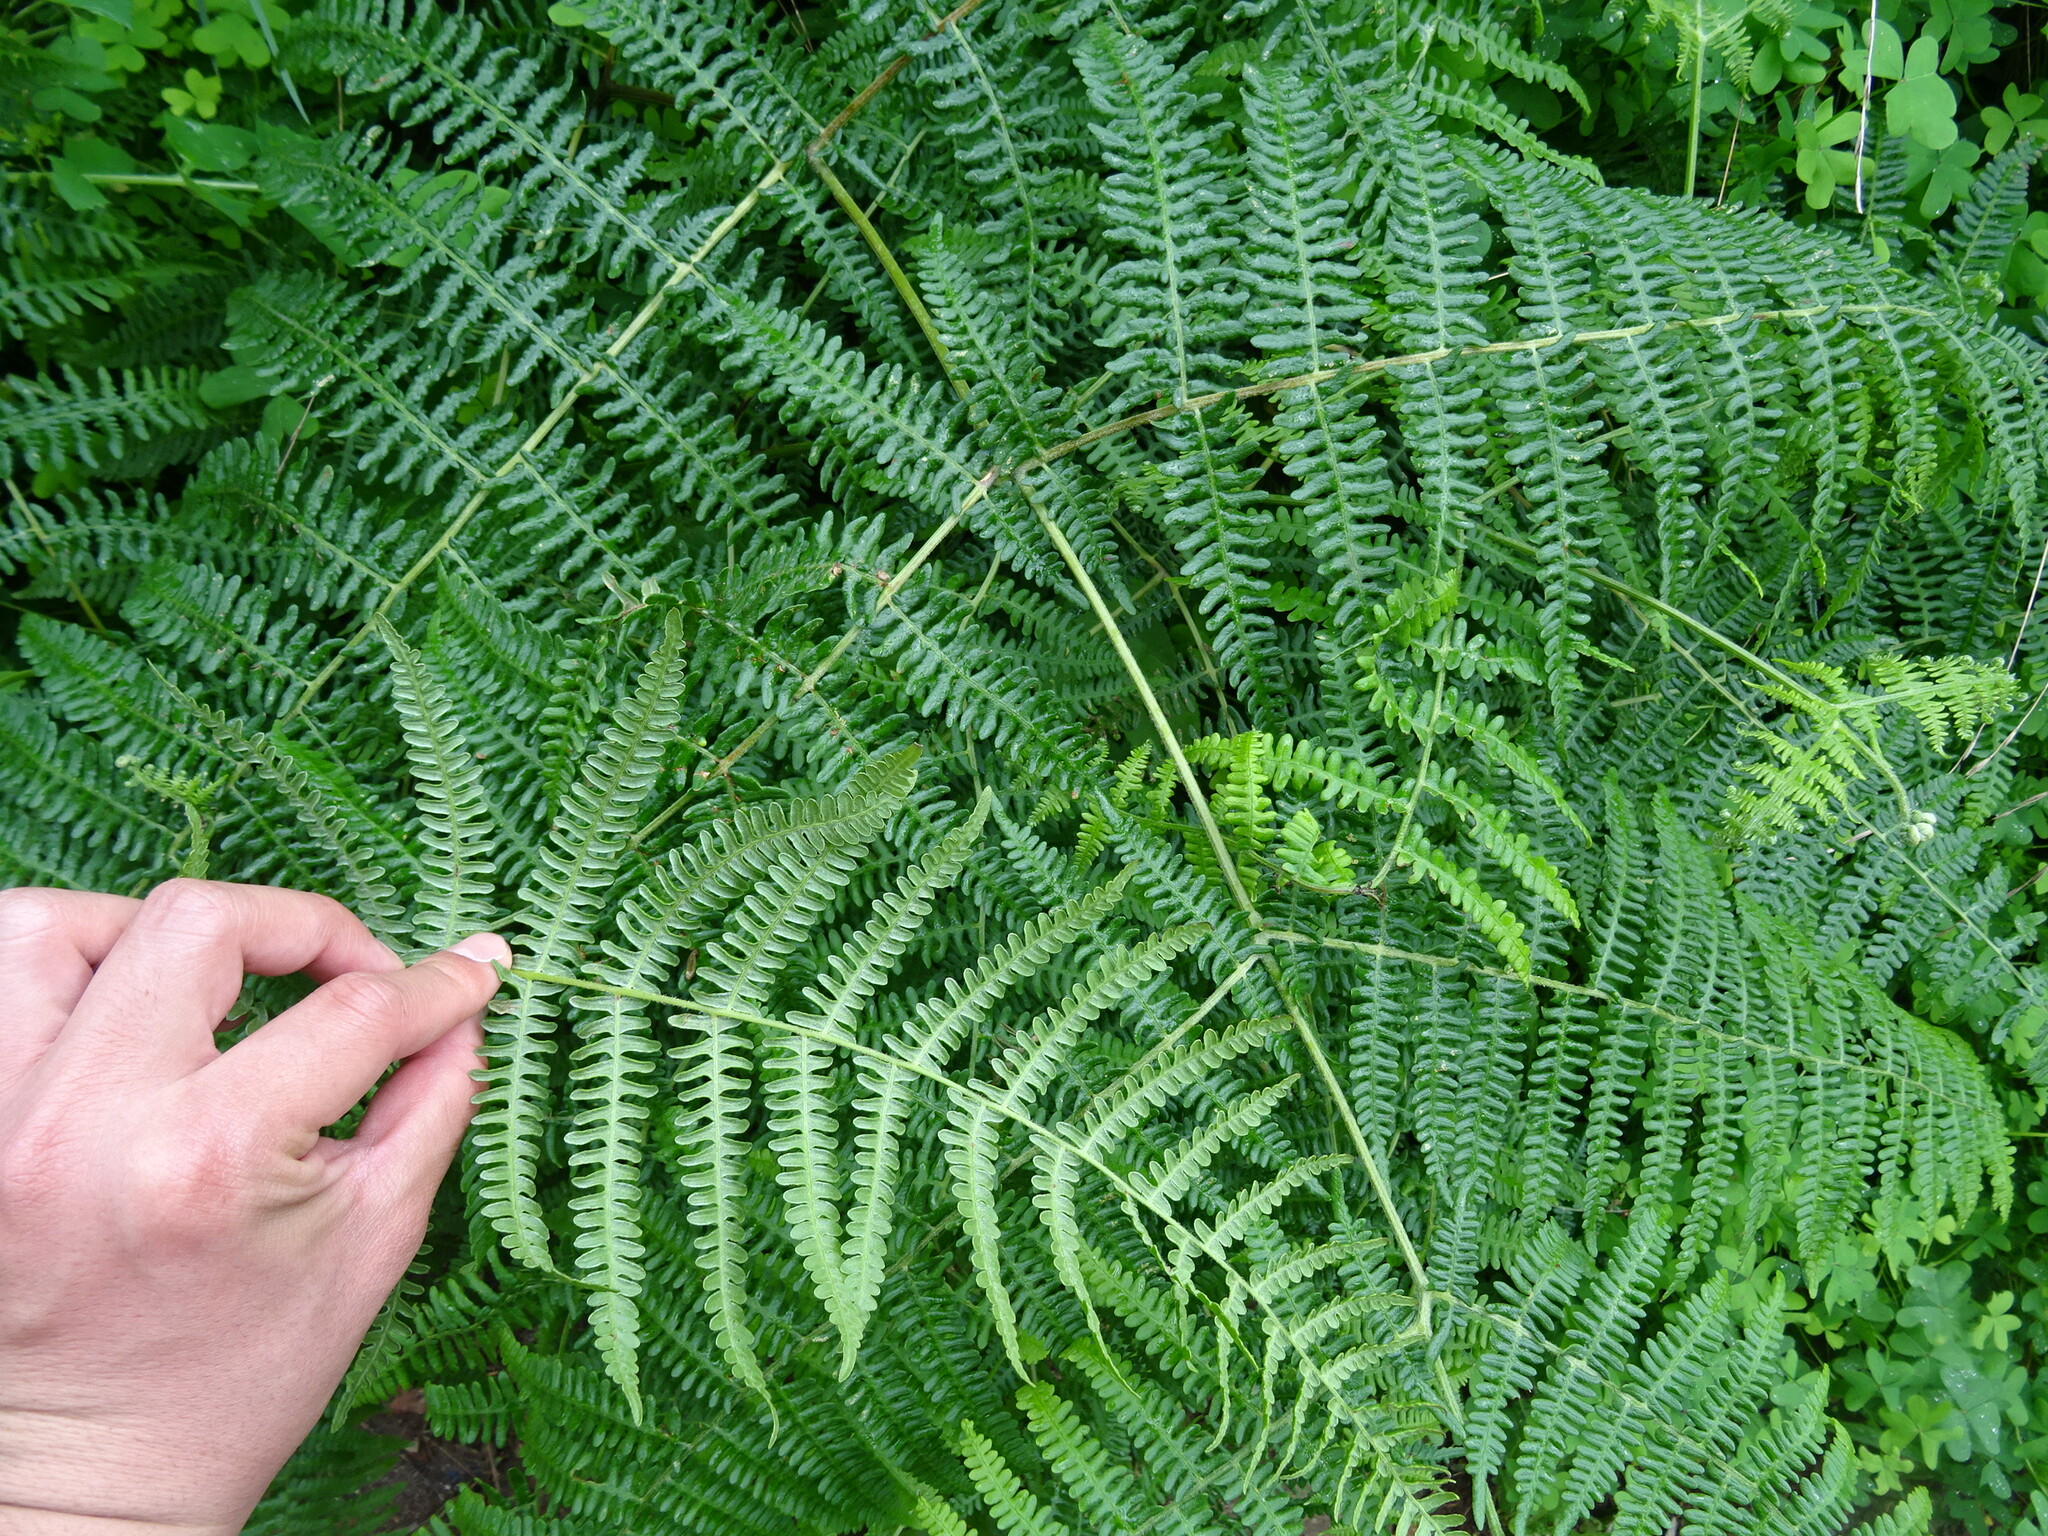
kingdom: Plantae
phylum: Tracheophyta
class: Polypodiopsida
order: Polypodiales
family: Dennstaedtiaceae
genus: Pteridium
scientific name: Pteridium aquilinum
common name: Bracken
